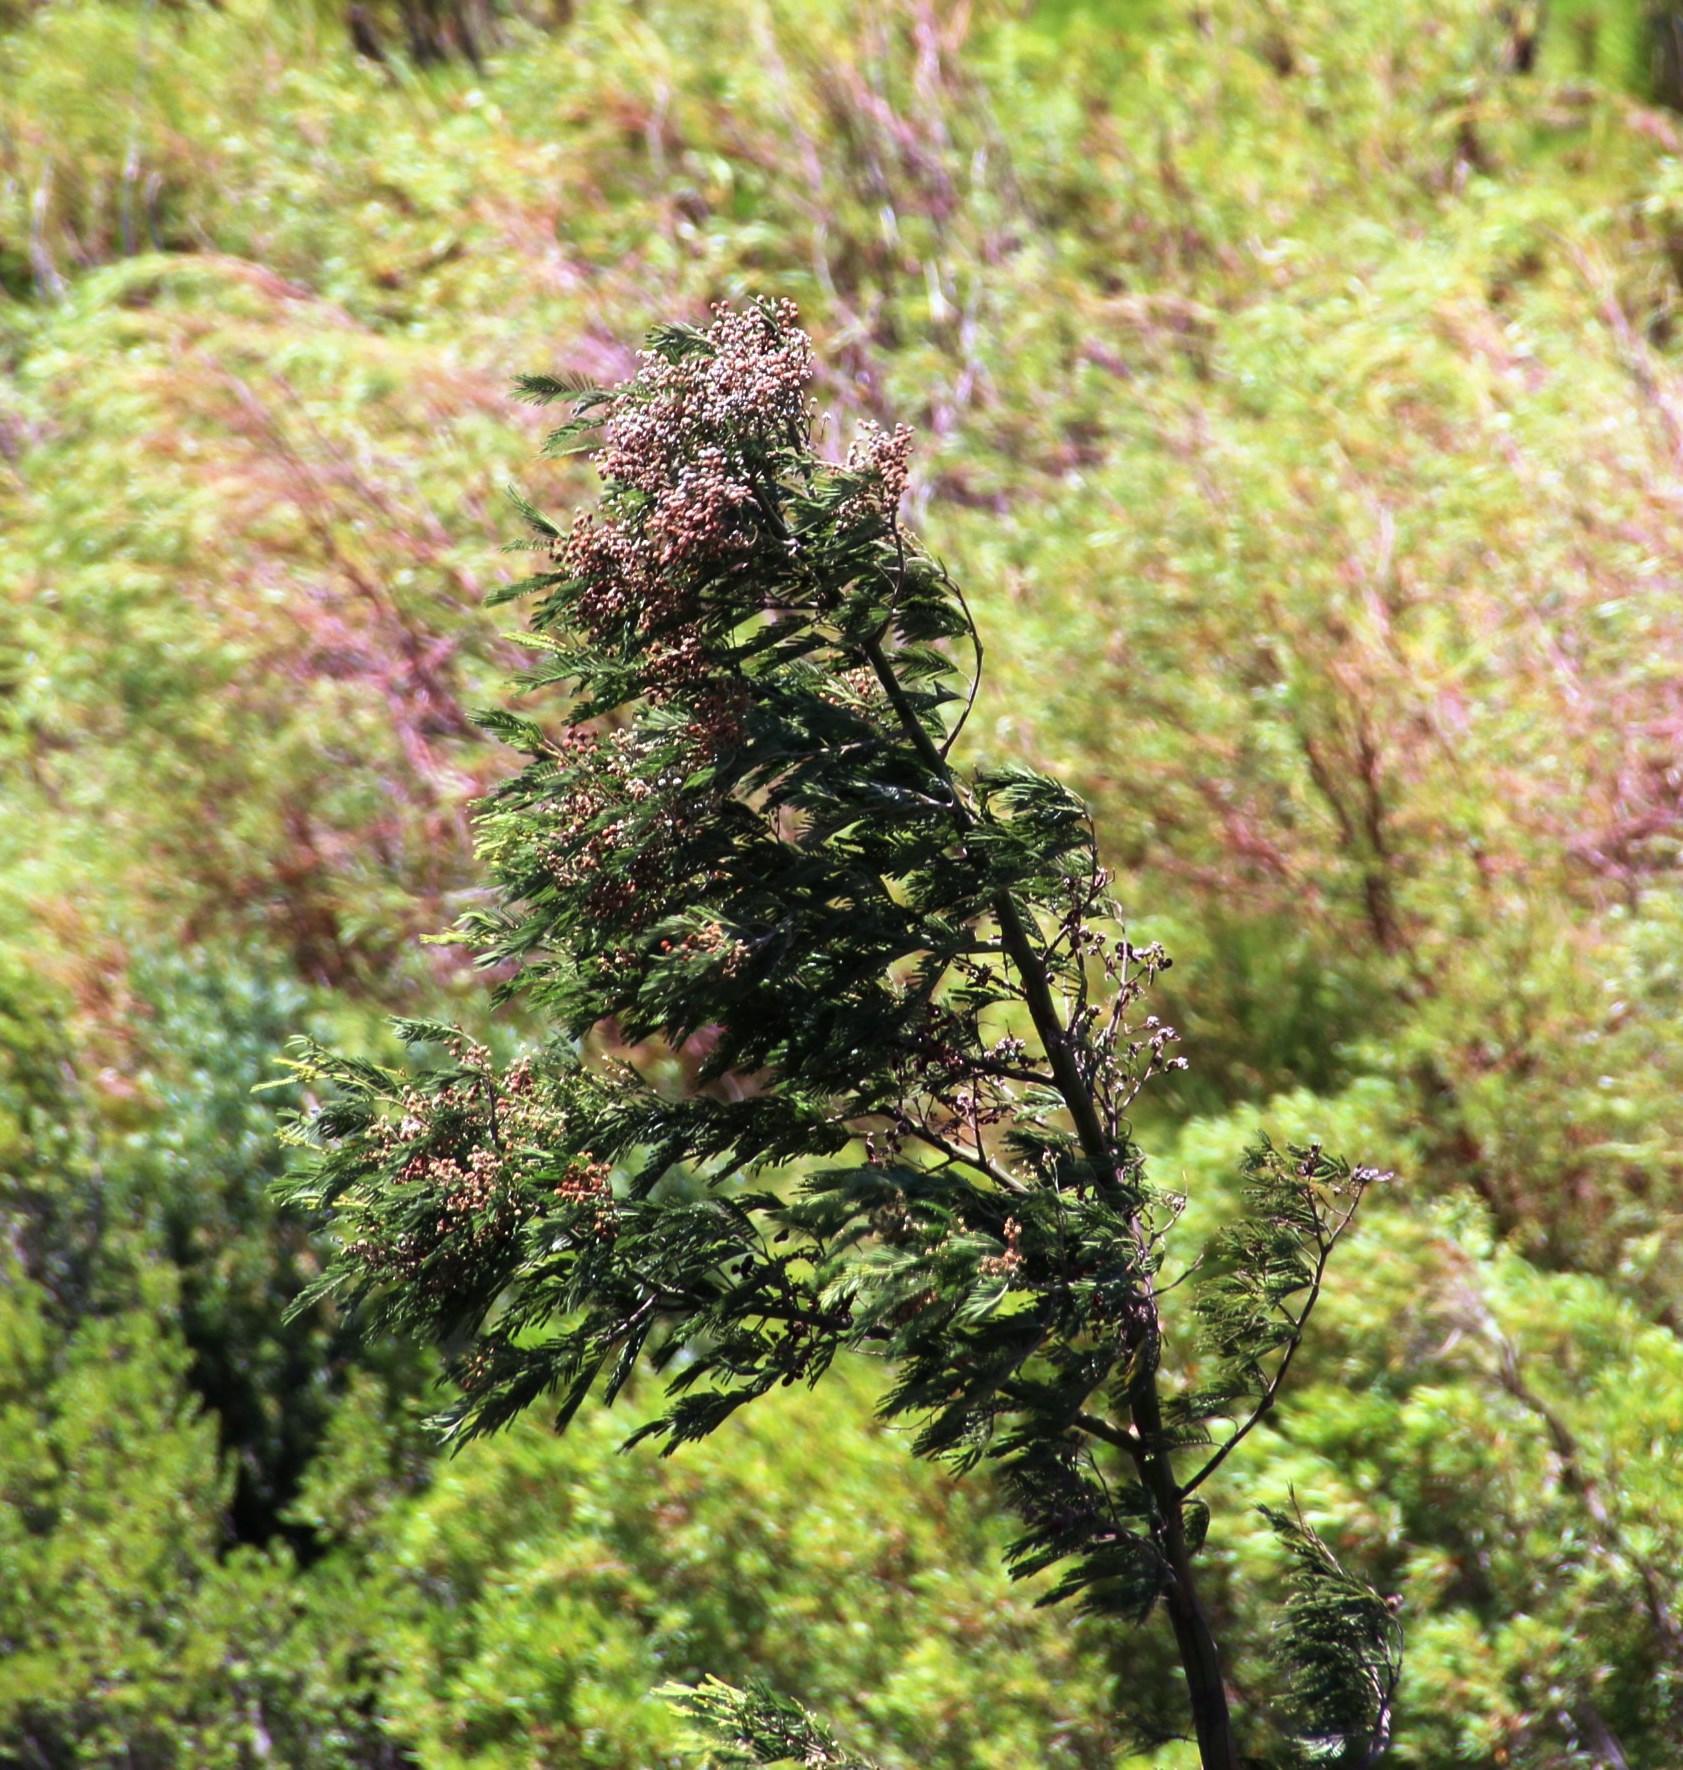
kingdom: Plantae
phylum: Tracheophyta
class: Magnoliopsida
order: Fabales
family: Fabaceae
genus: Acacia
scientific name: Acacia mearnsii
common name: Black wattle
